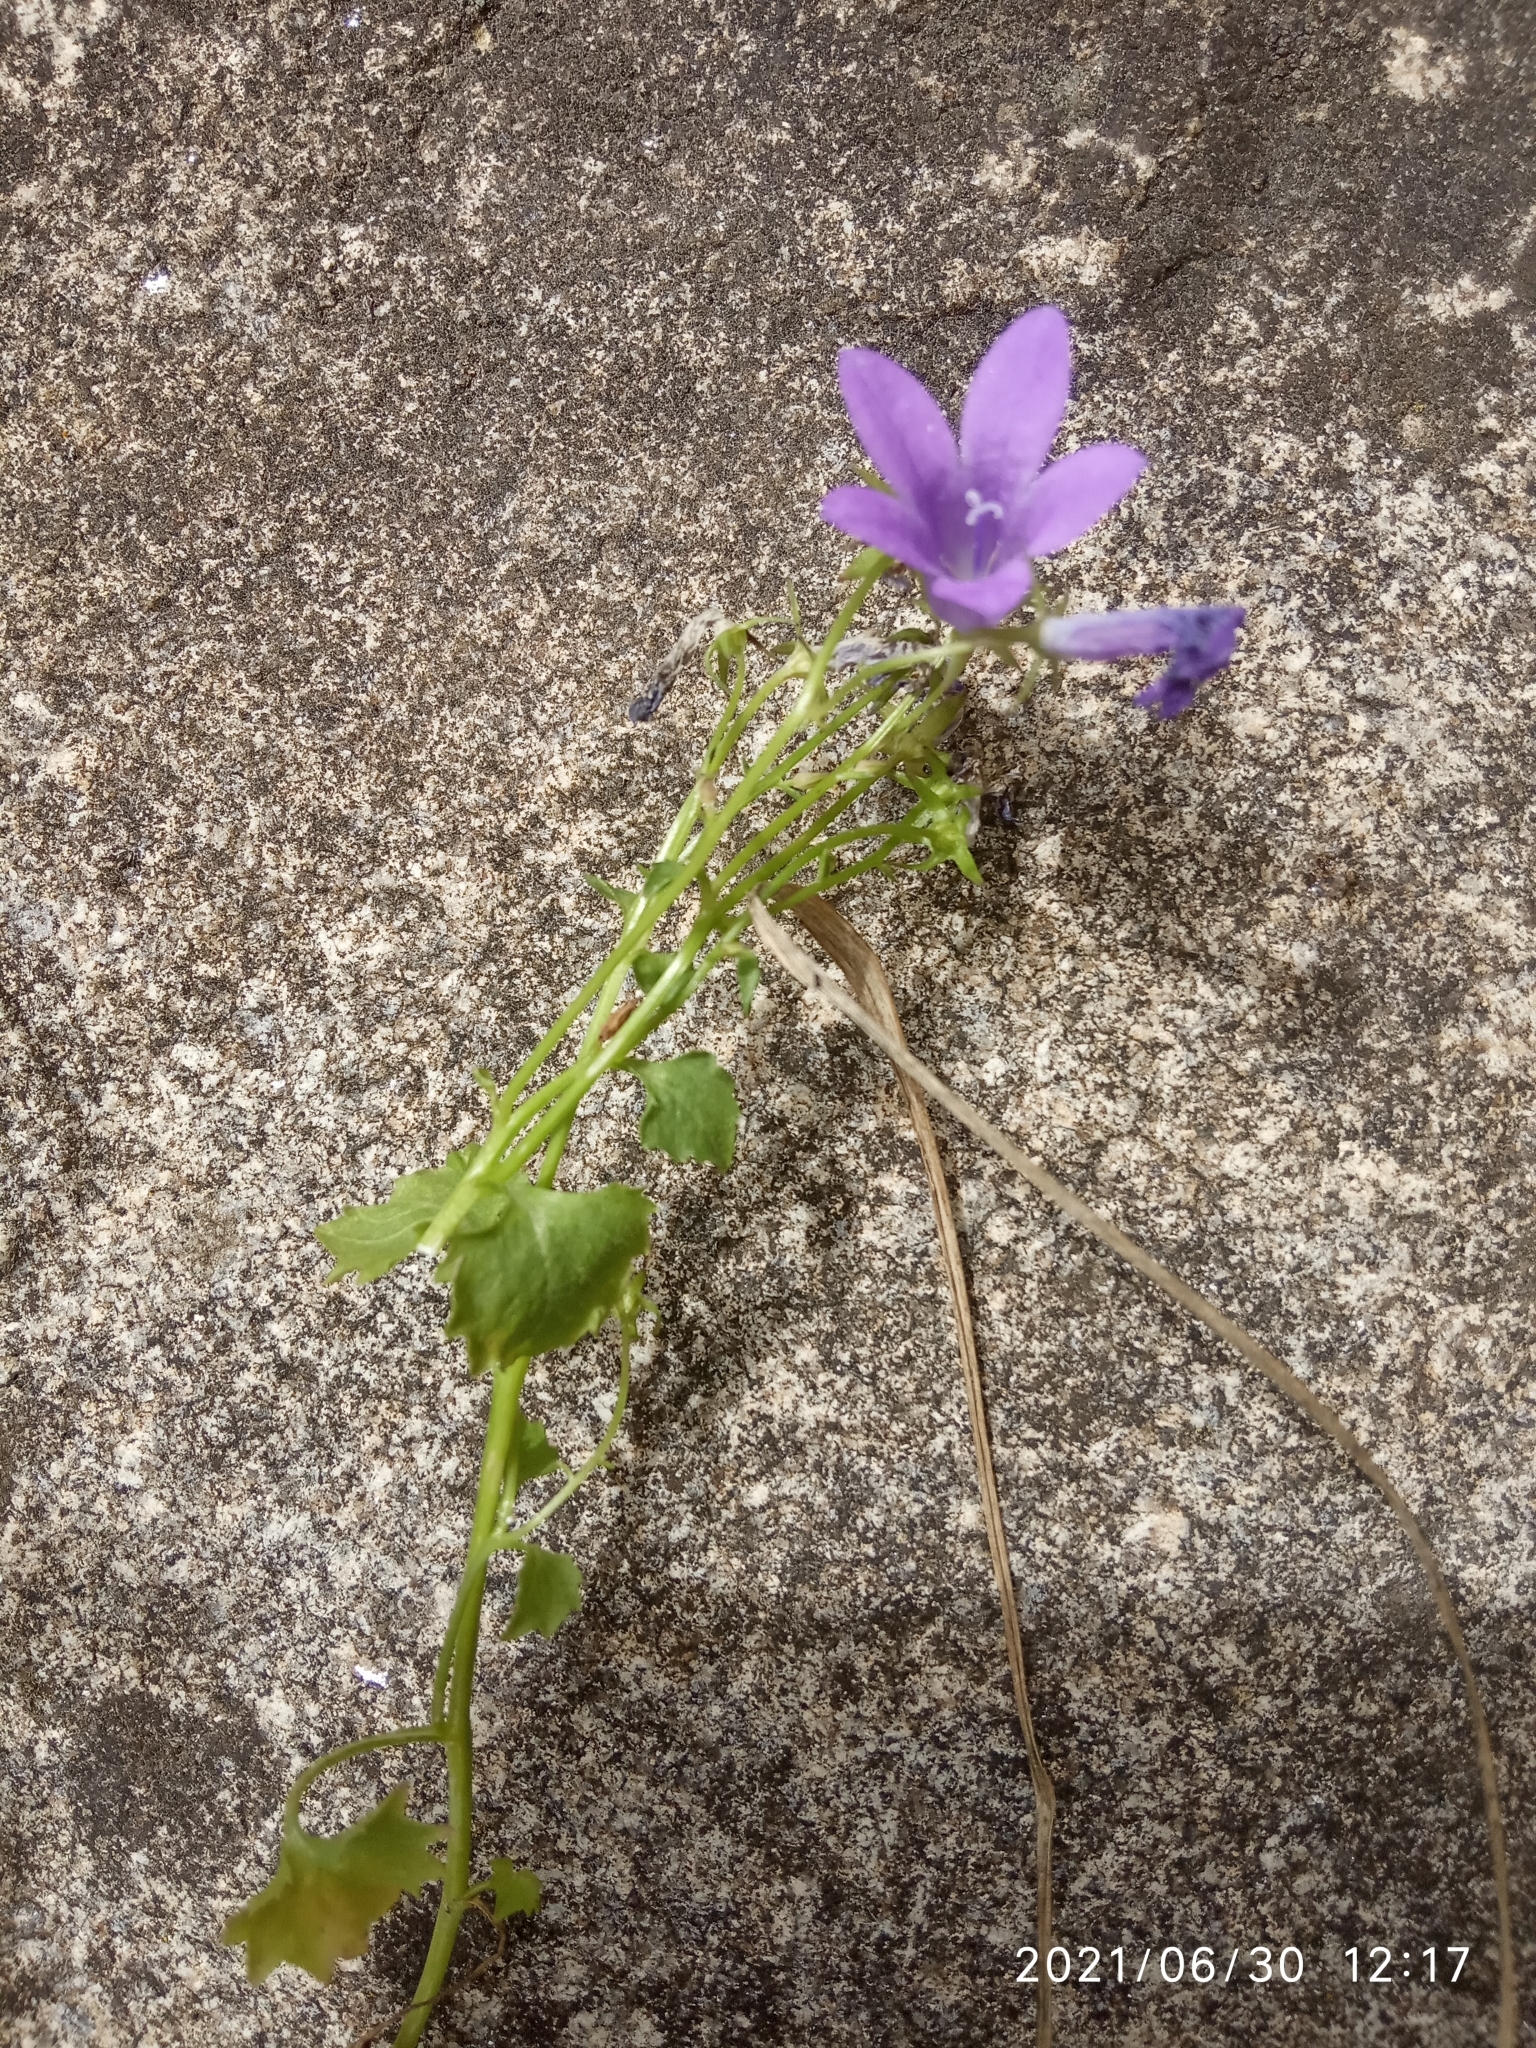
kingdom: Plantae
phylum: Tracheophyta
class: Magnoliopsida
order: Asterales
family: Campanulaceae
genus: Campanula
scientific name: Campanula poscharskyana
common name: Trailing bellflower
